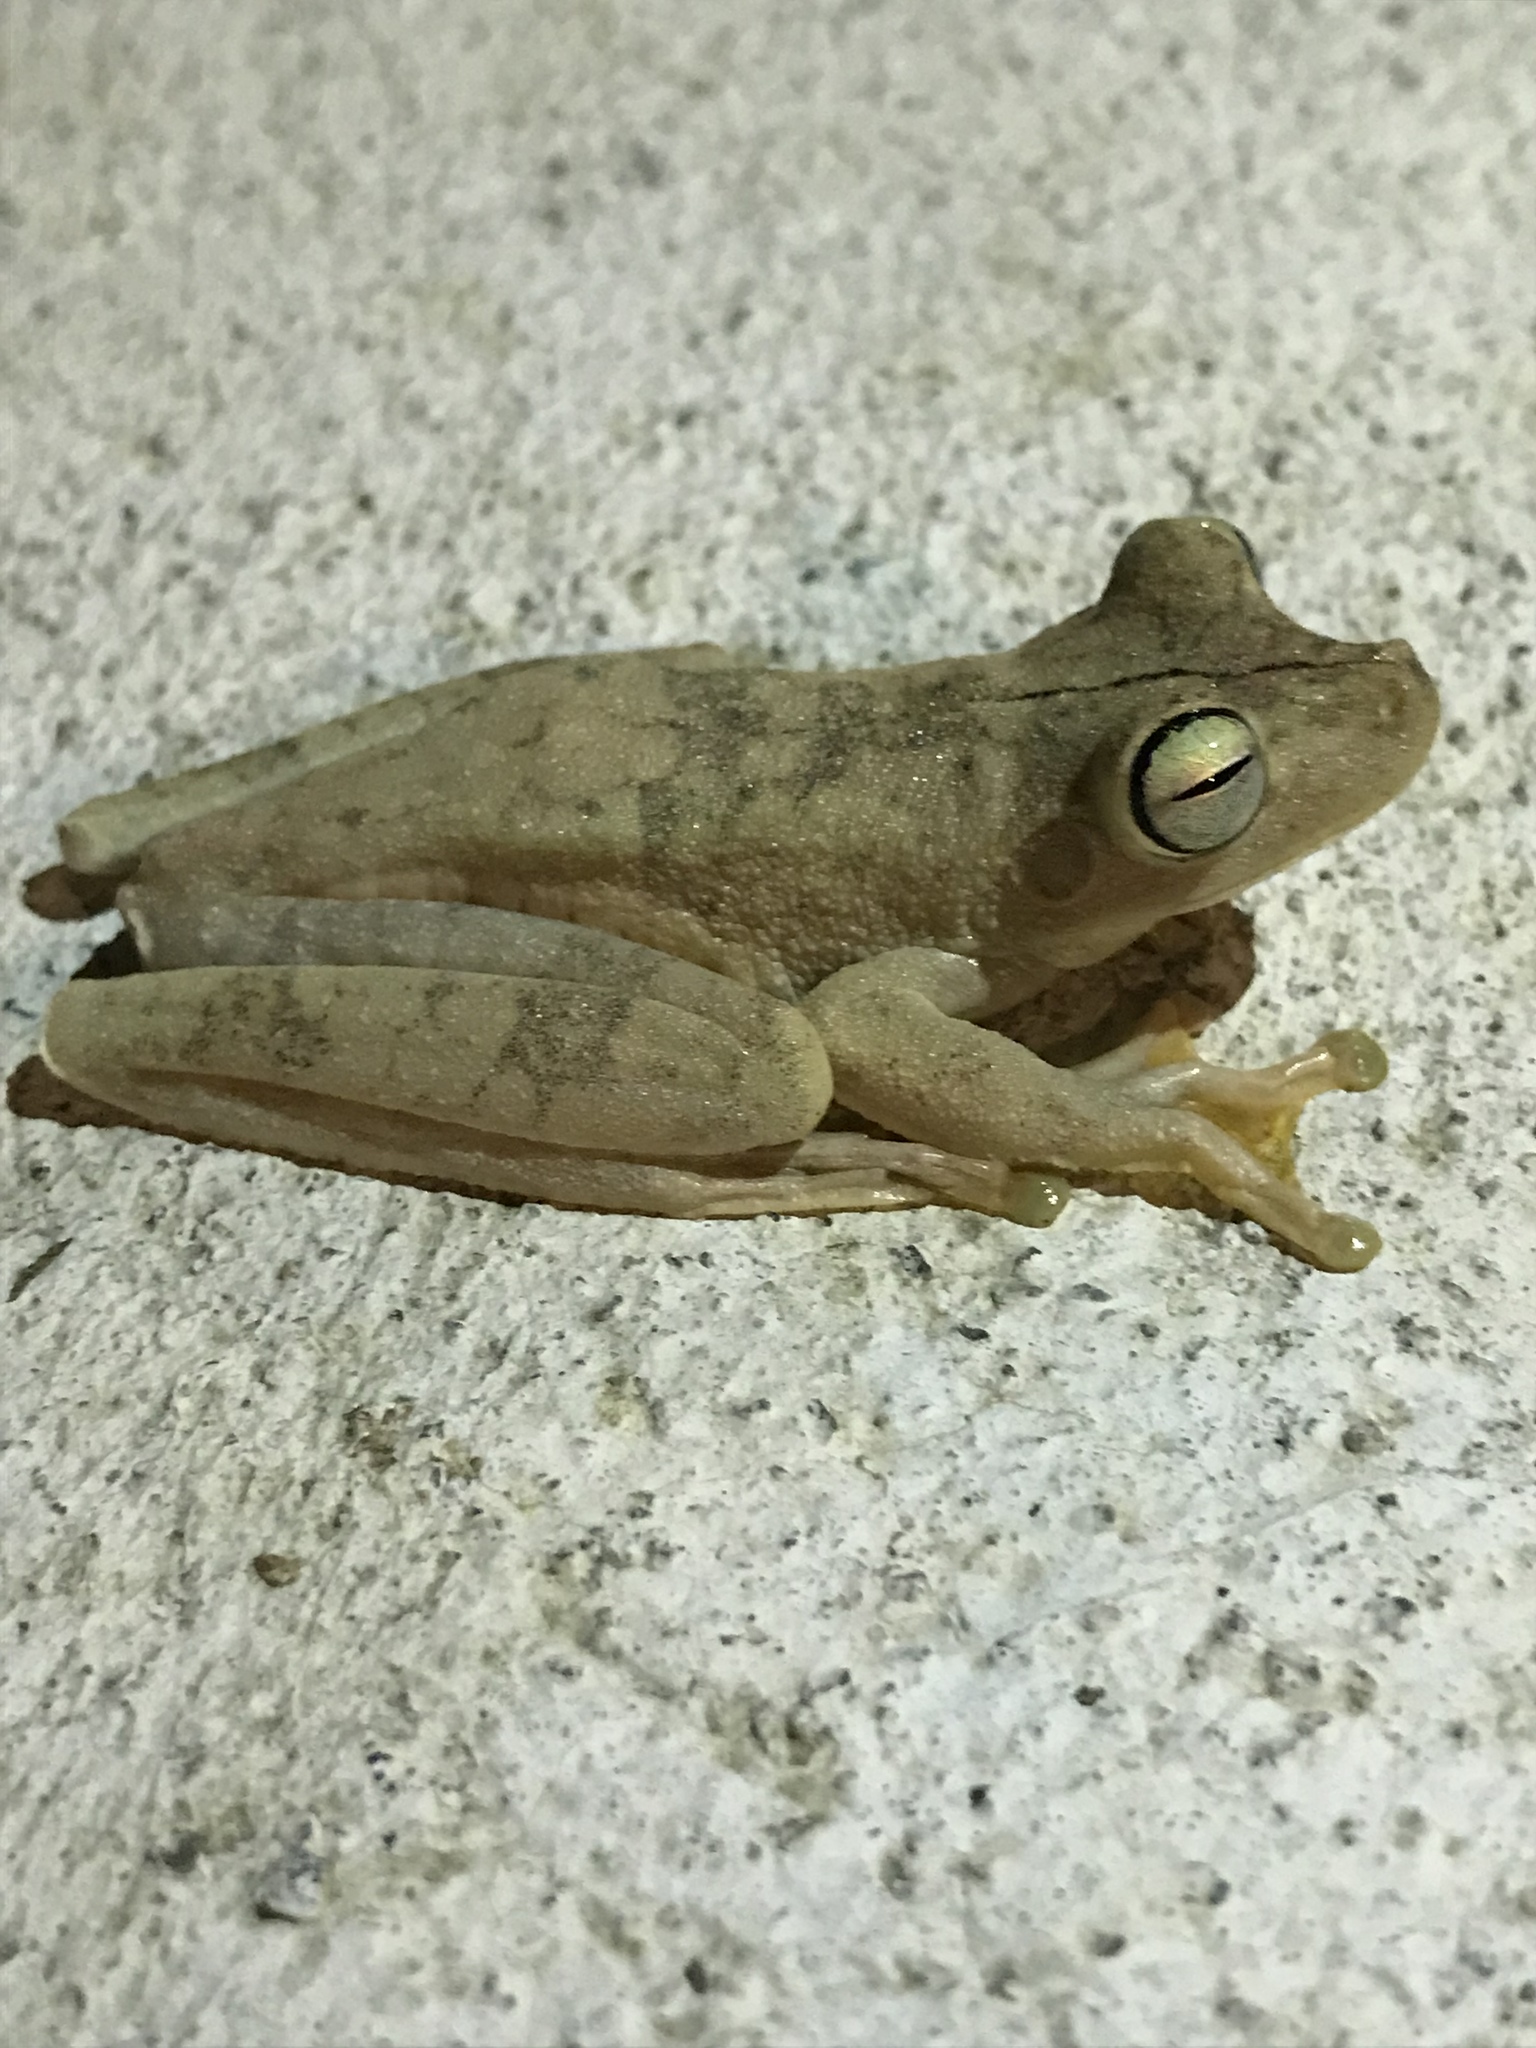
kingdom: Animalia
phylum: Chordata
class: Amphibia
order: Anura
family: Hylidae
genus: Boana
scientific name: Boana rosenbergi
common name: Rosenberg´s gladiator treefrog
